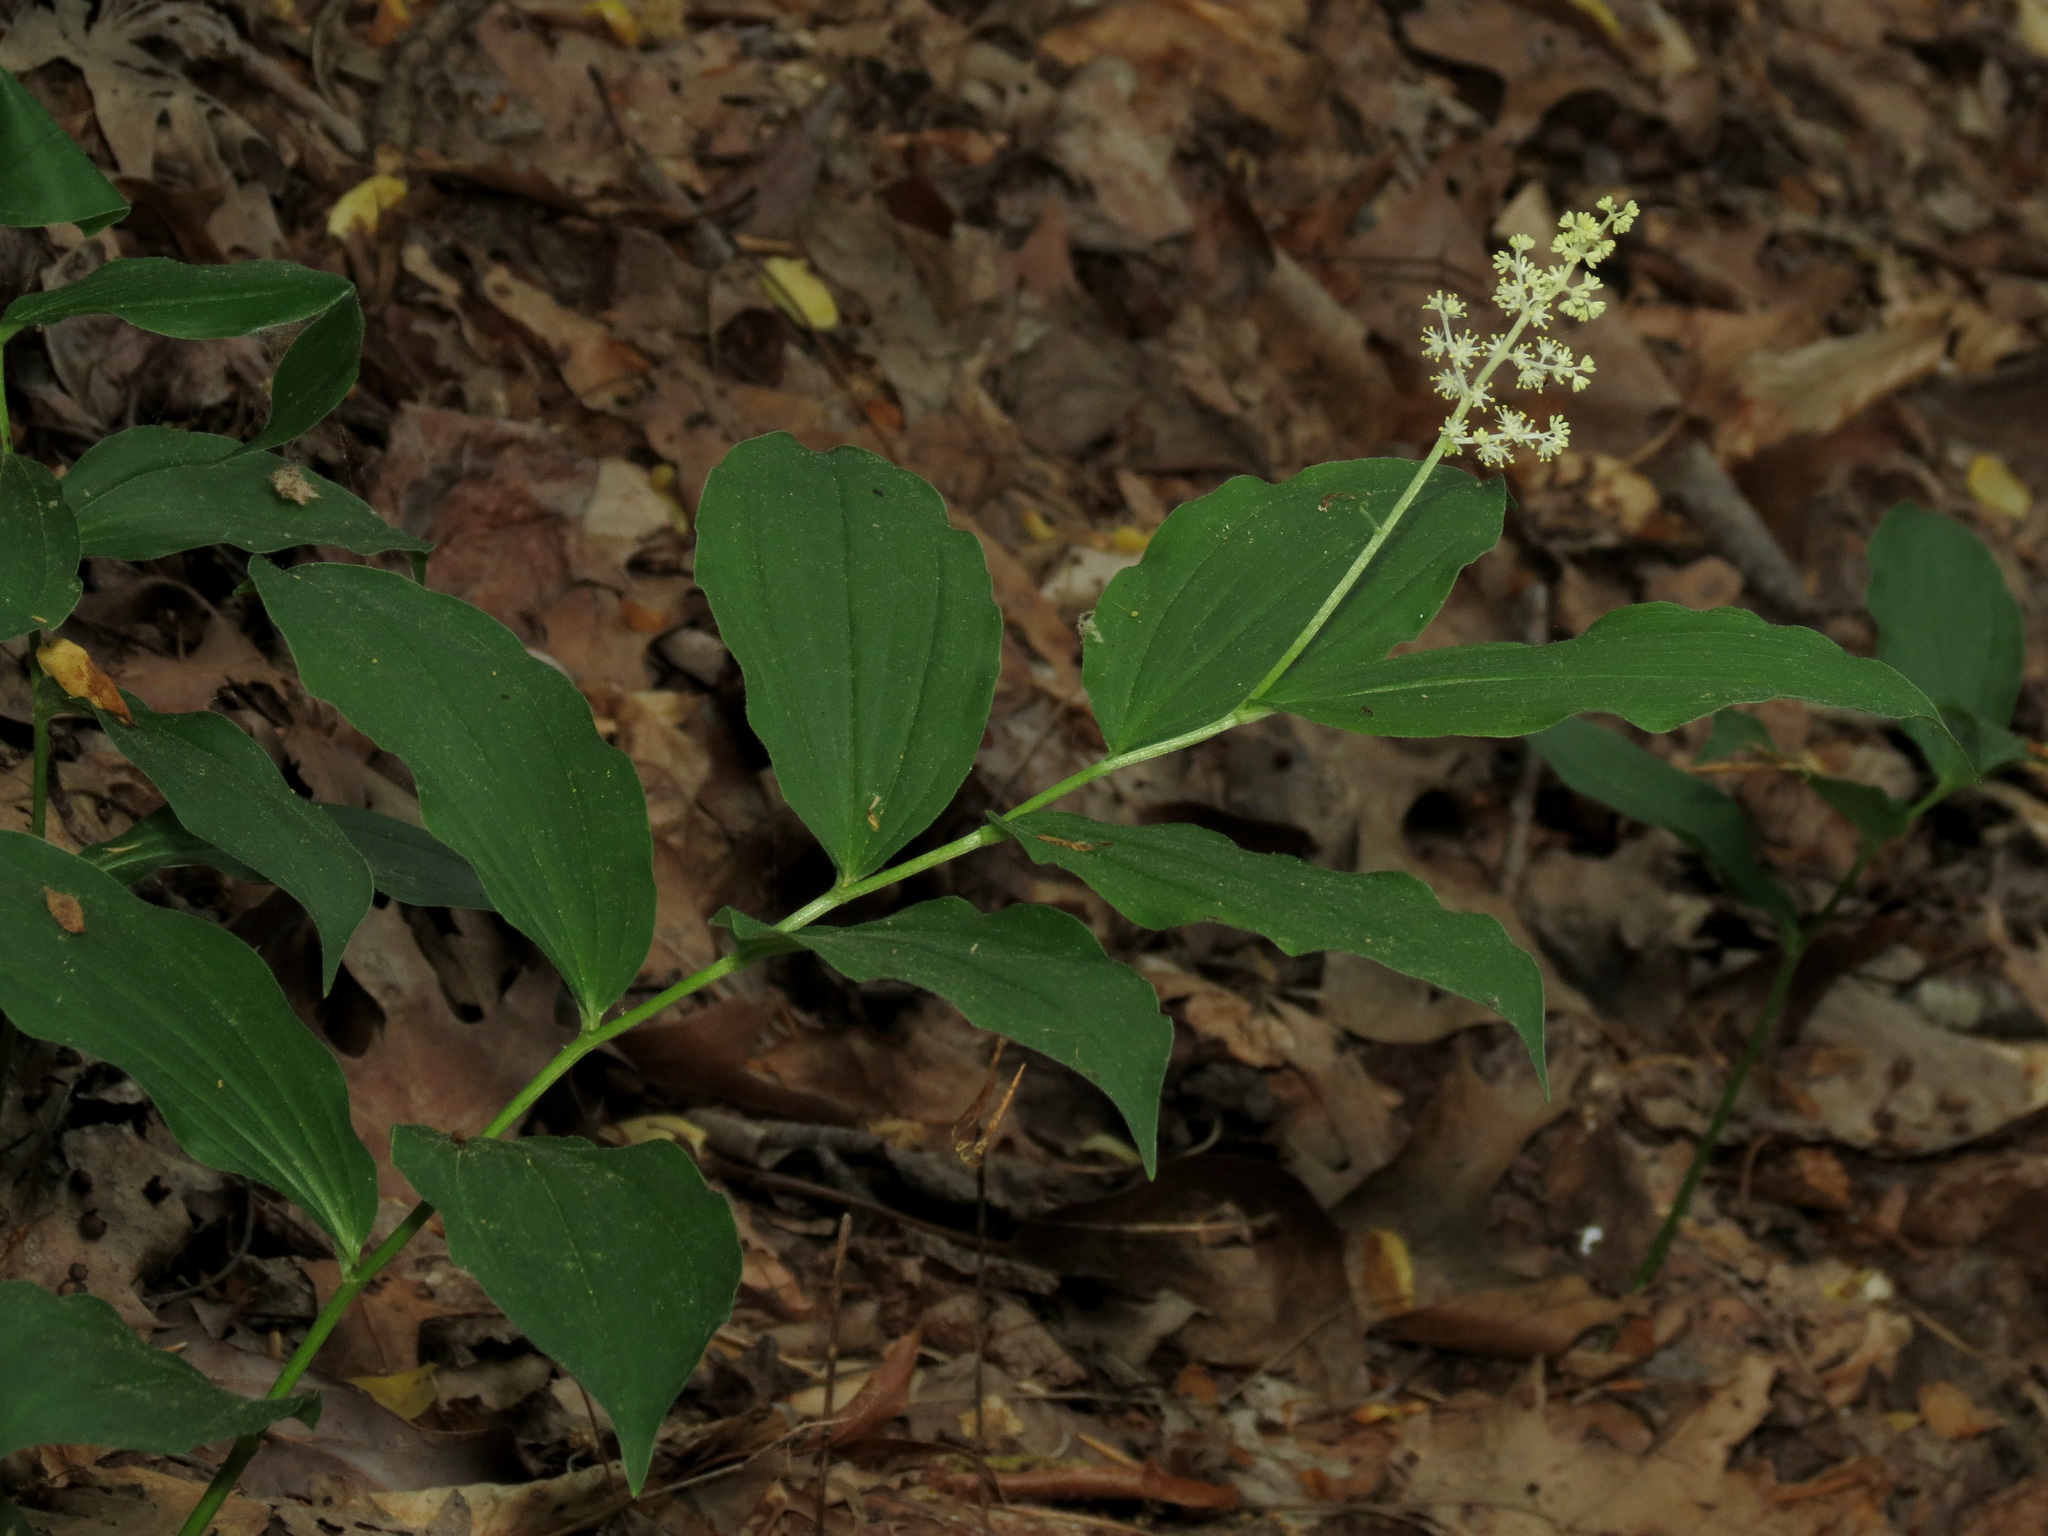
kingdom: Plantae
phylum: Tracheophyta
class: Liliopsida
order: Asparagales
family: Asparagaceae
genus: Maianthemum
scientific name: Maianthemum racemosum
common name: False spikenard
